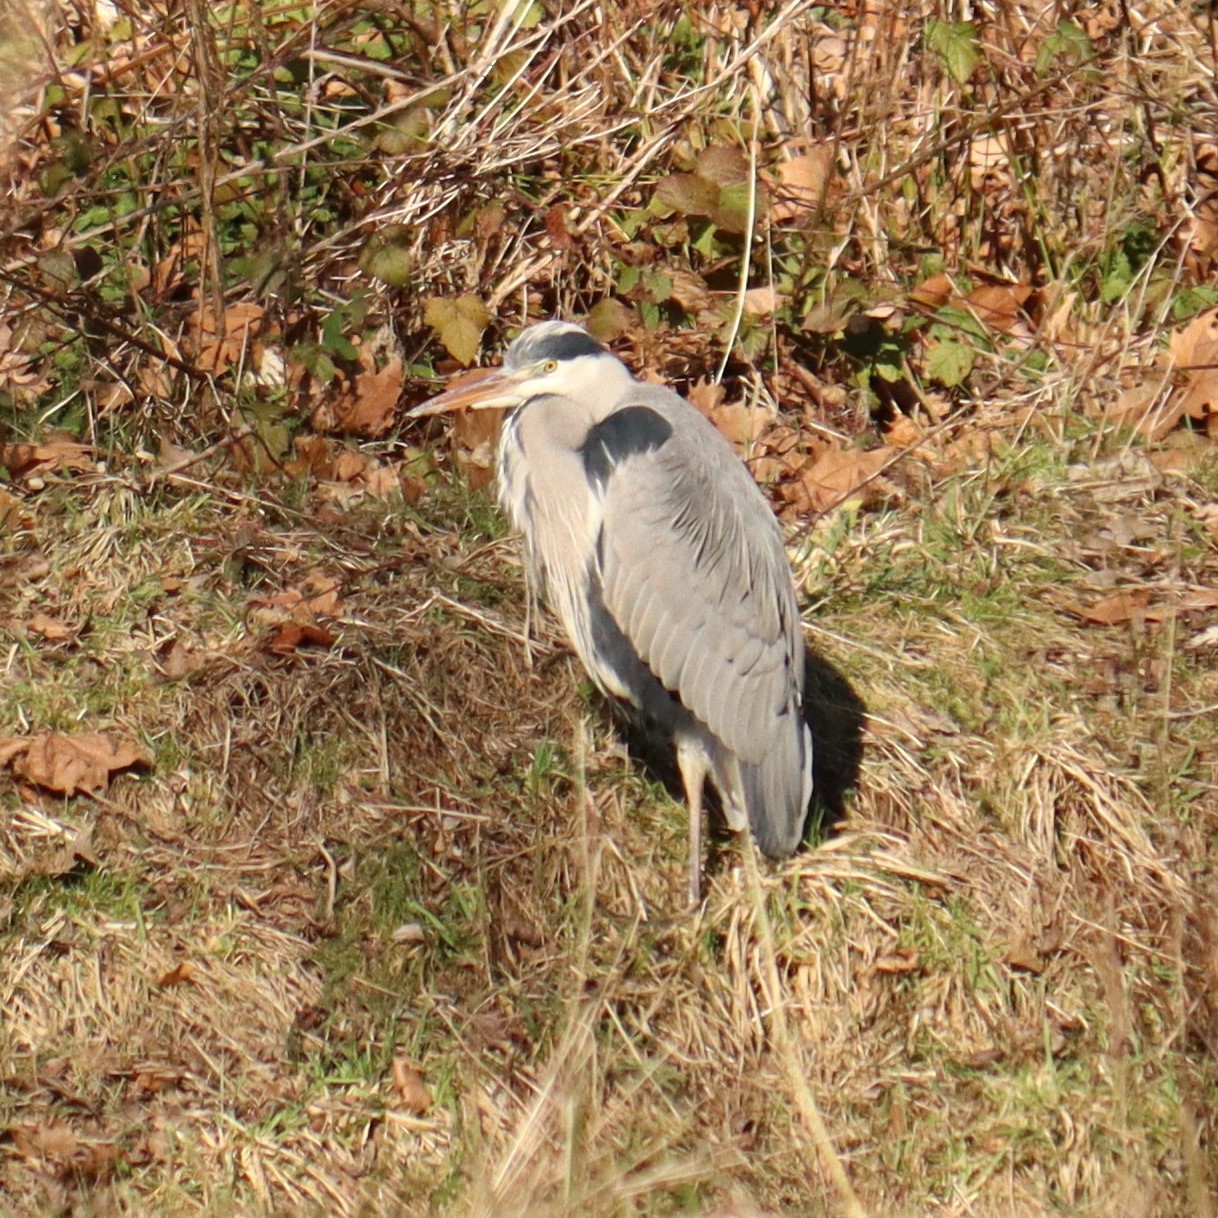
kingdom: Animalia
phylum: Chordata
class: Aves
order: Pelecaniformes
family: Ardeidae
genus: Ardea
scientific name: Ardea cinerea
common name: Grey heron
